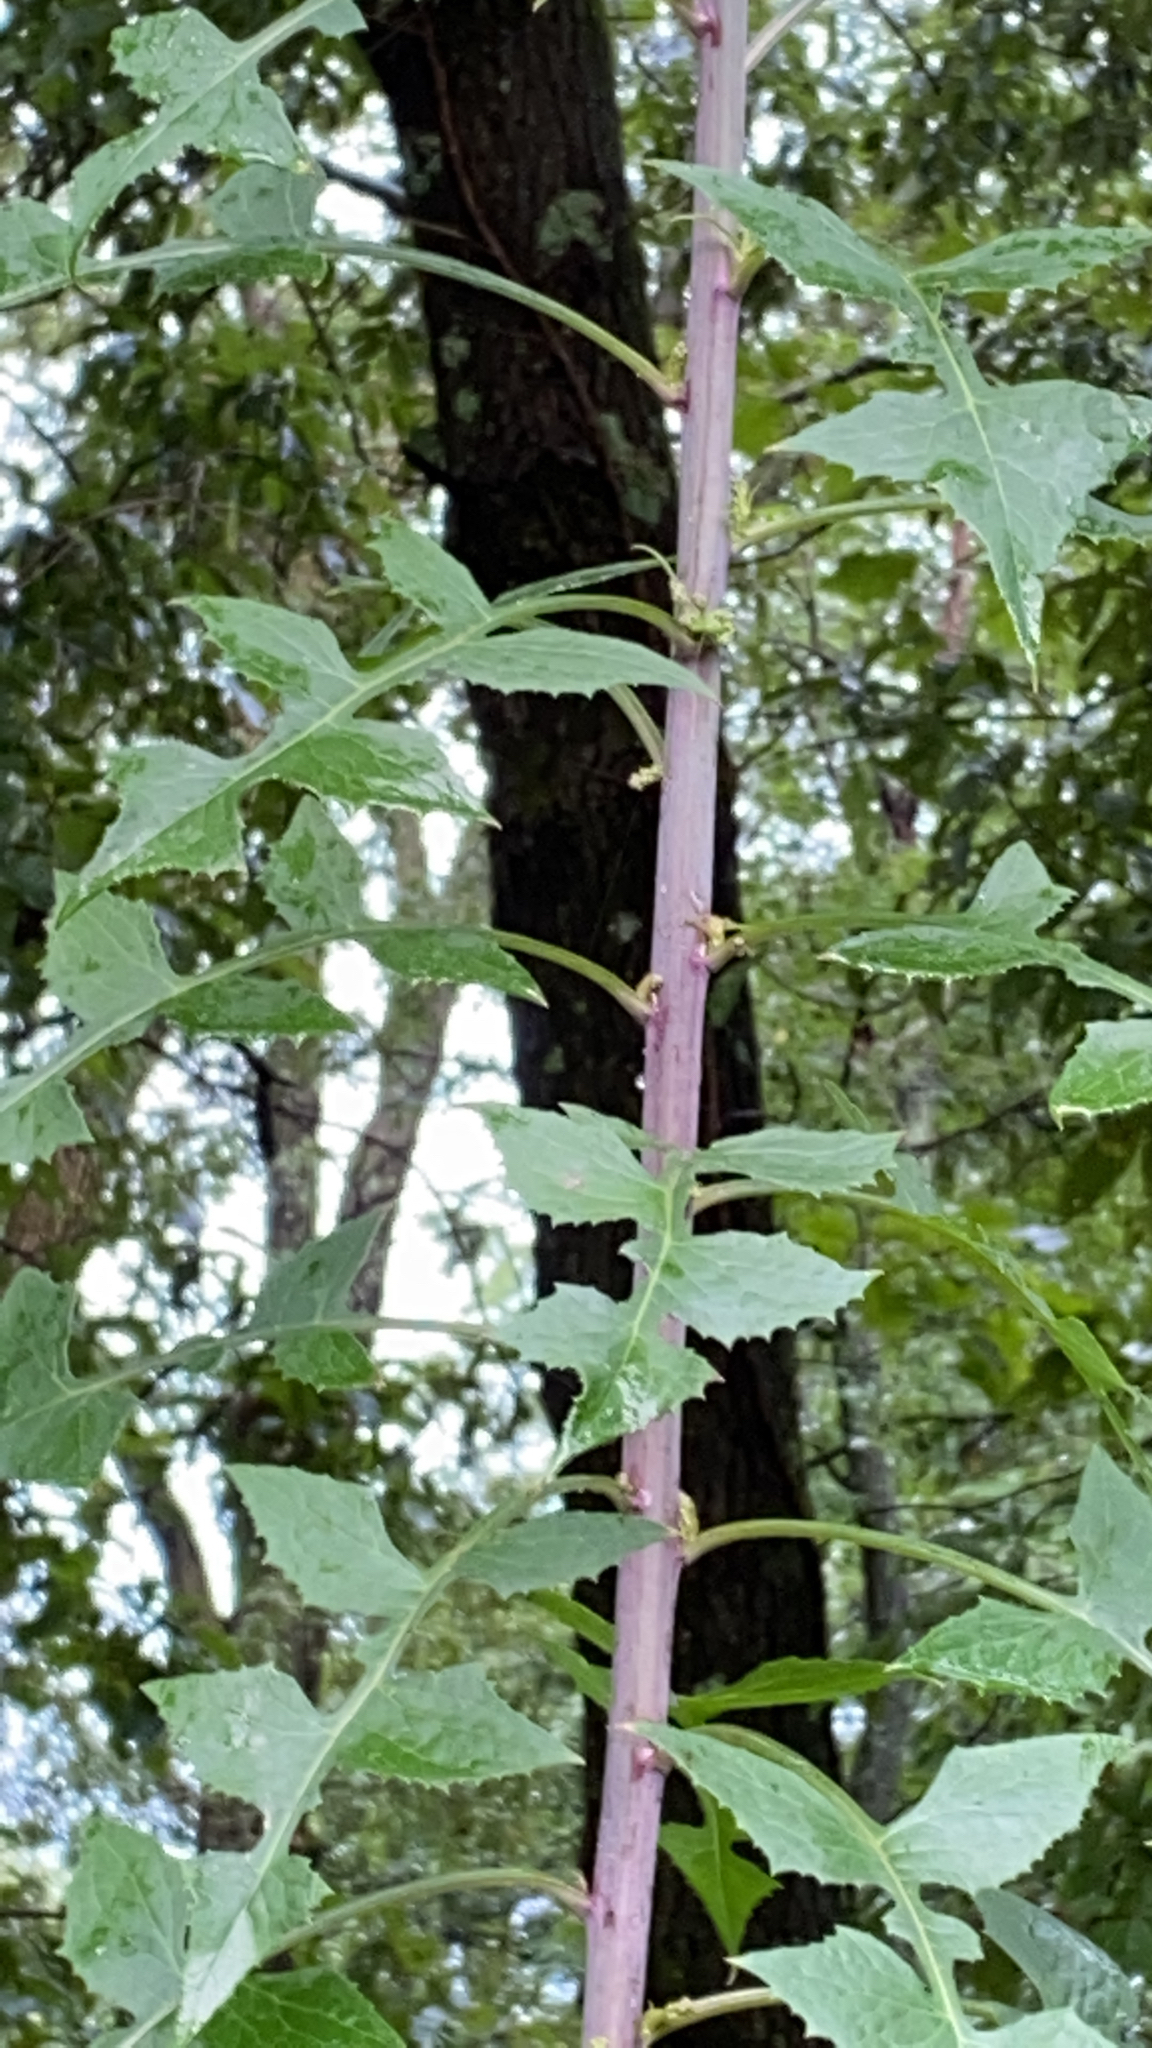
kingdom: Plantae
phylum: Tracheophyta
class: Magnoliopsida
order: Asterales
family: Asteraceae
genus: Lactuca
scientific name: Lactuca floridana
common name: Woodland lettuce
